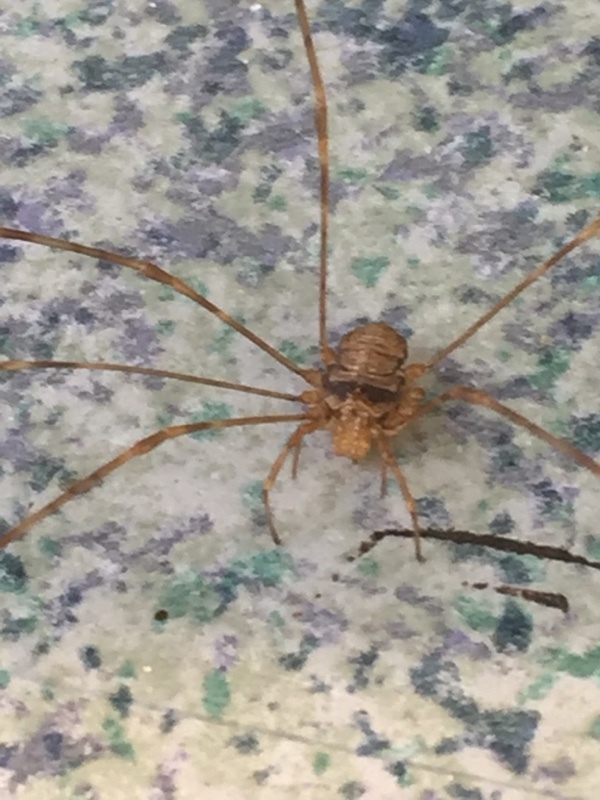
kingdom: Animalia
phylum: Arthropoda
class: Arachnida
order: Opiliones
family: Phalangiidae
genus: Dicranopalpus
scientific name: Dicranopalpus ramosus
